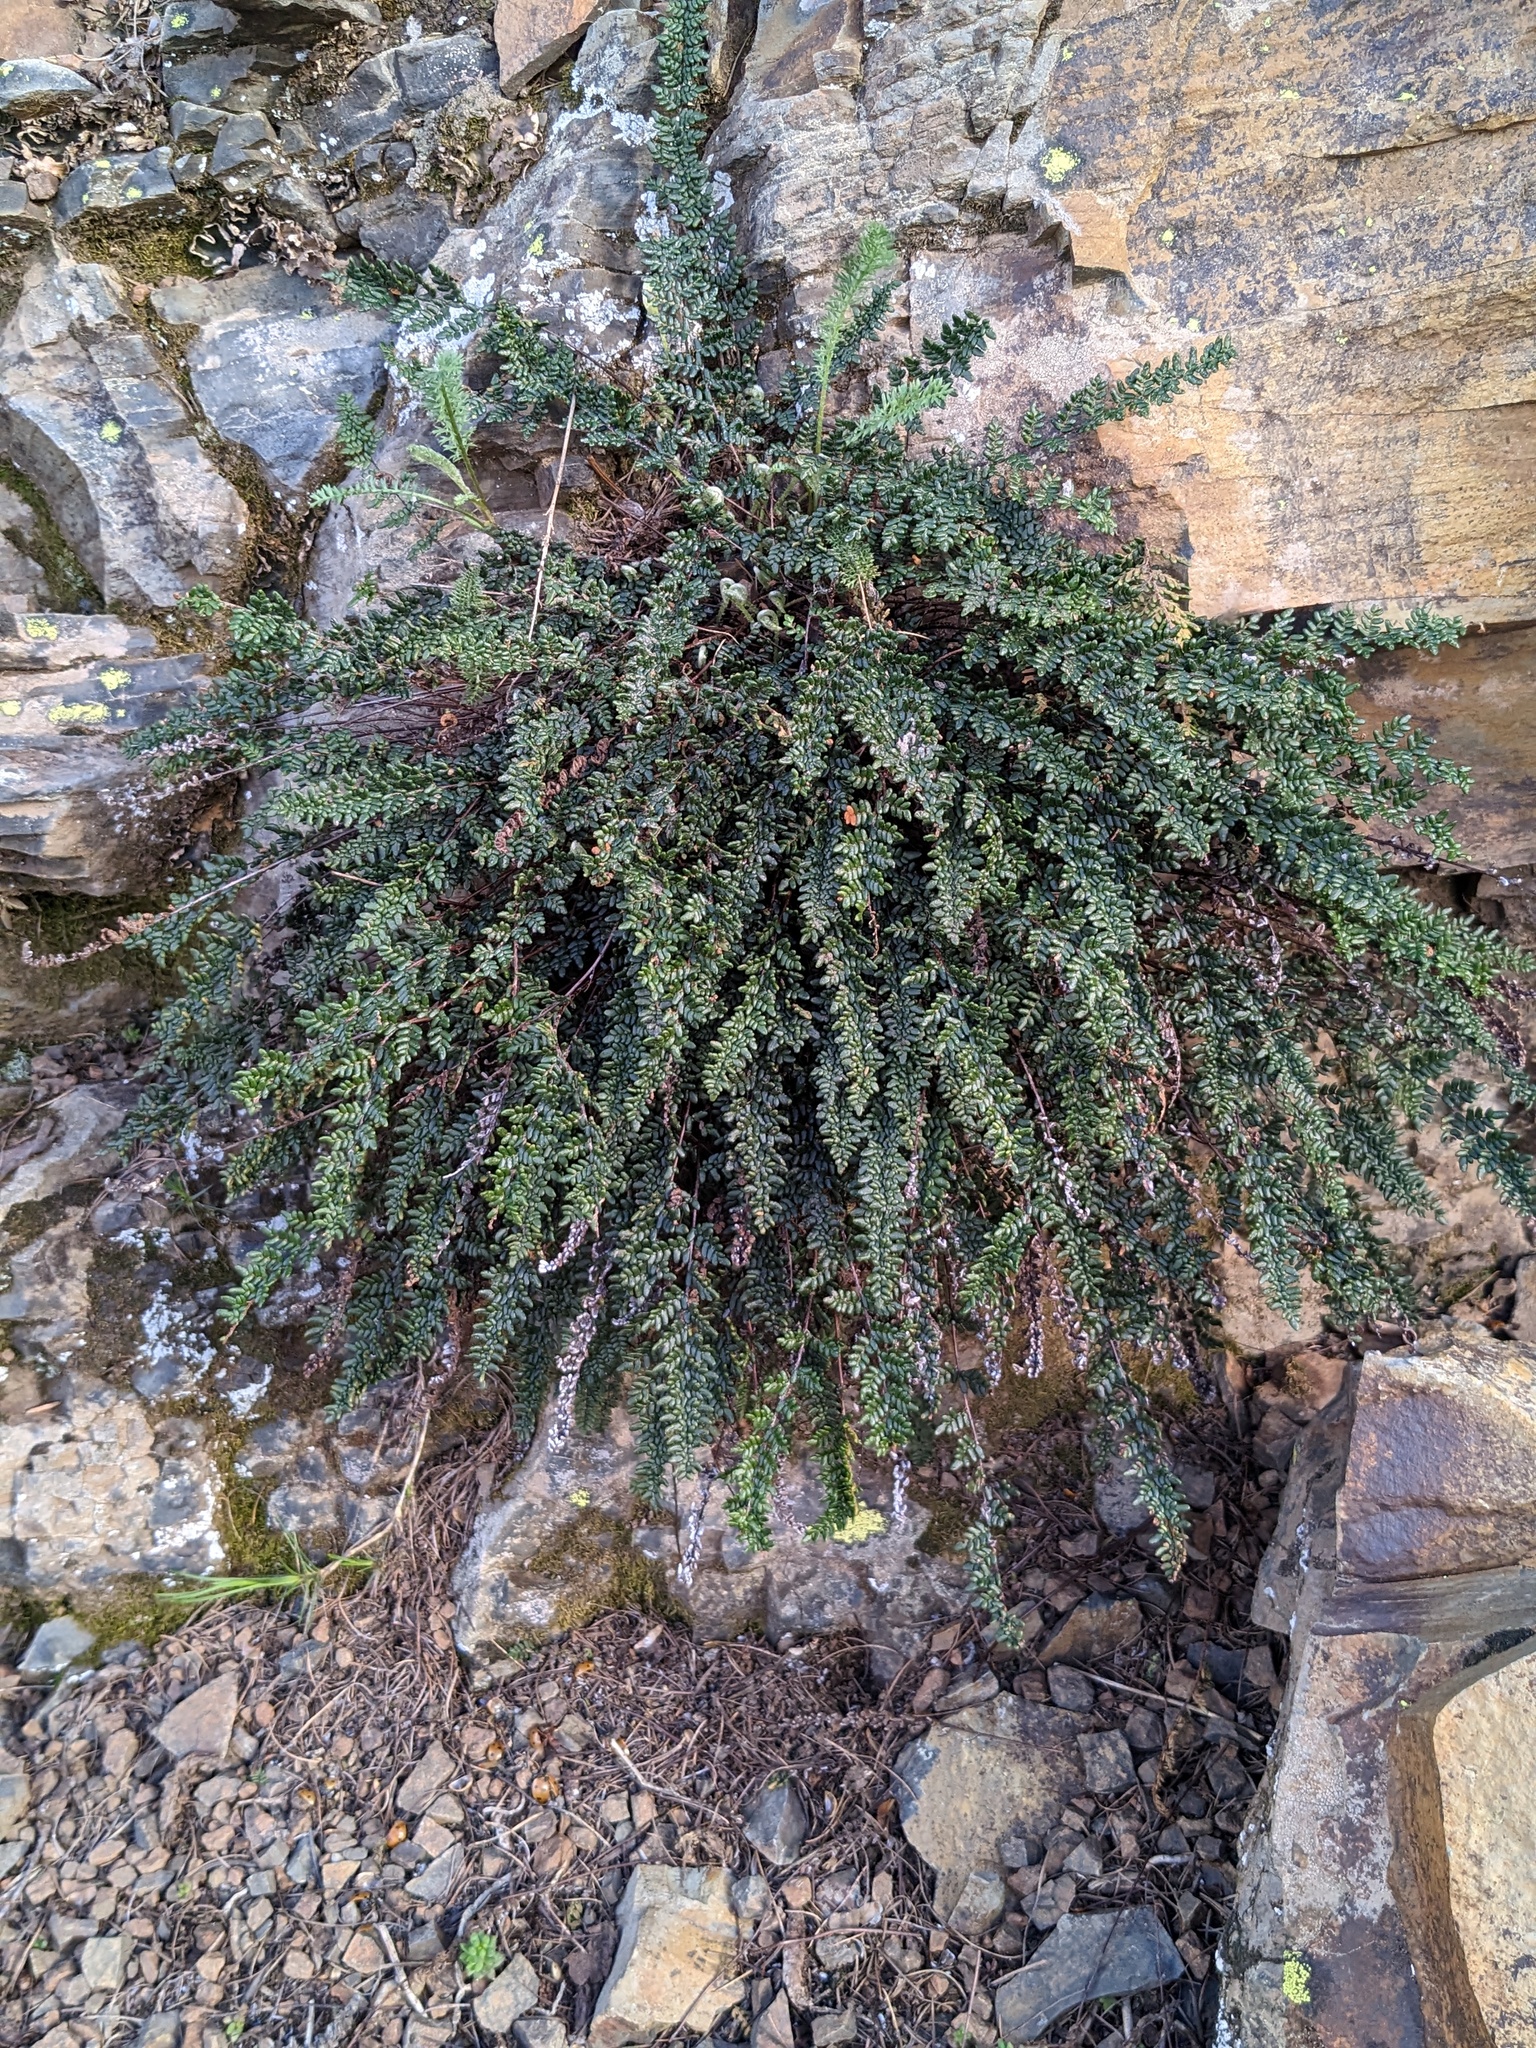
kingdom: Plantae
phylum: Tracheophyta
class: Polypodiopsida
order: Polypodiales
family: Pteridaceae
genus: Myriopteris
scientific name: Myriopteris gracillima
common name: Lace fern
